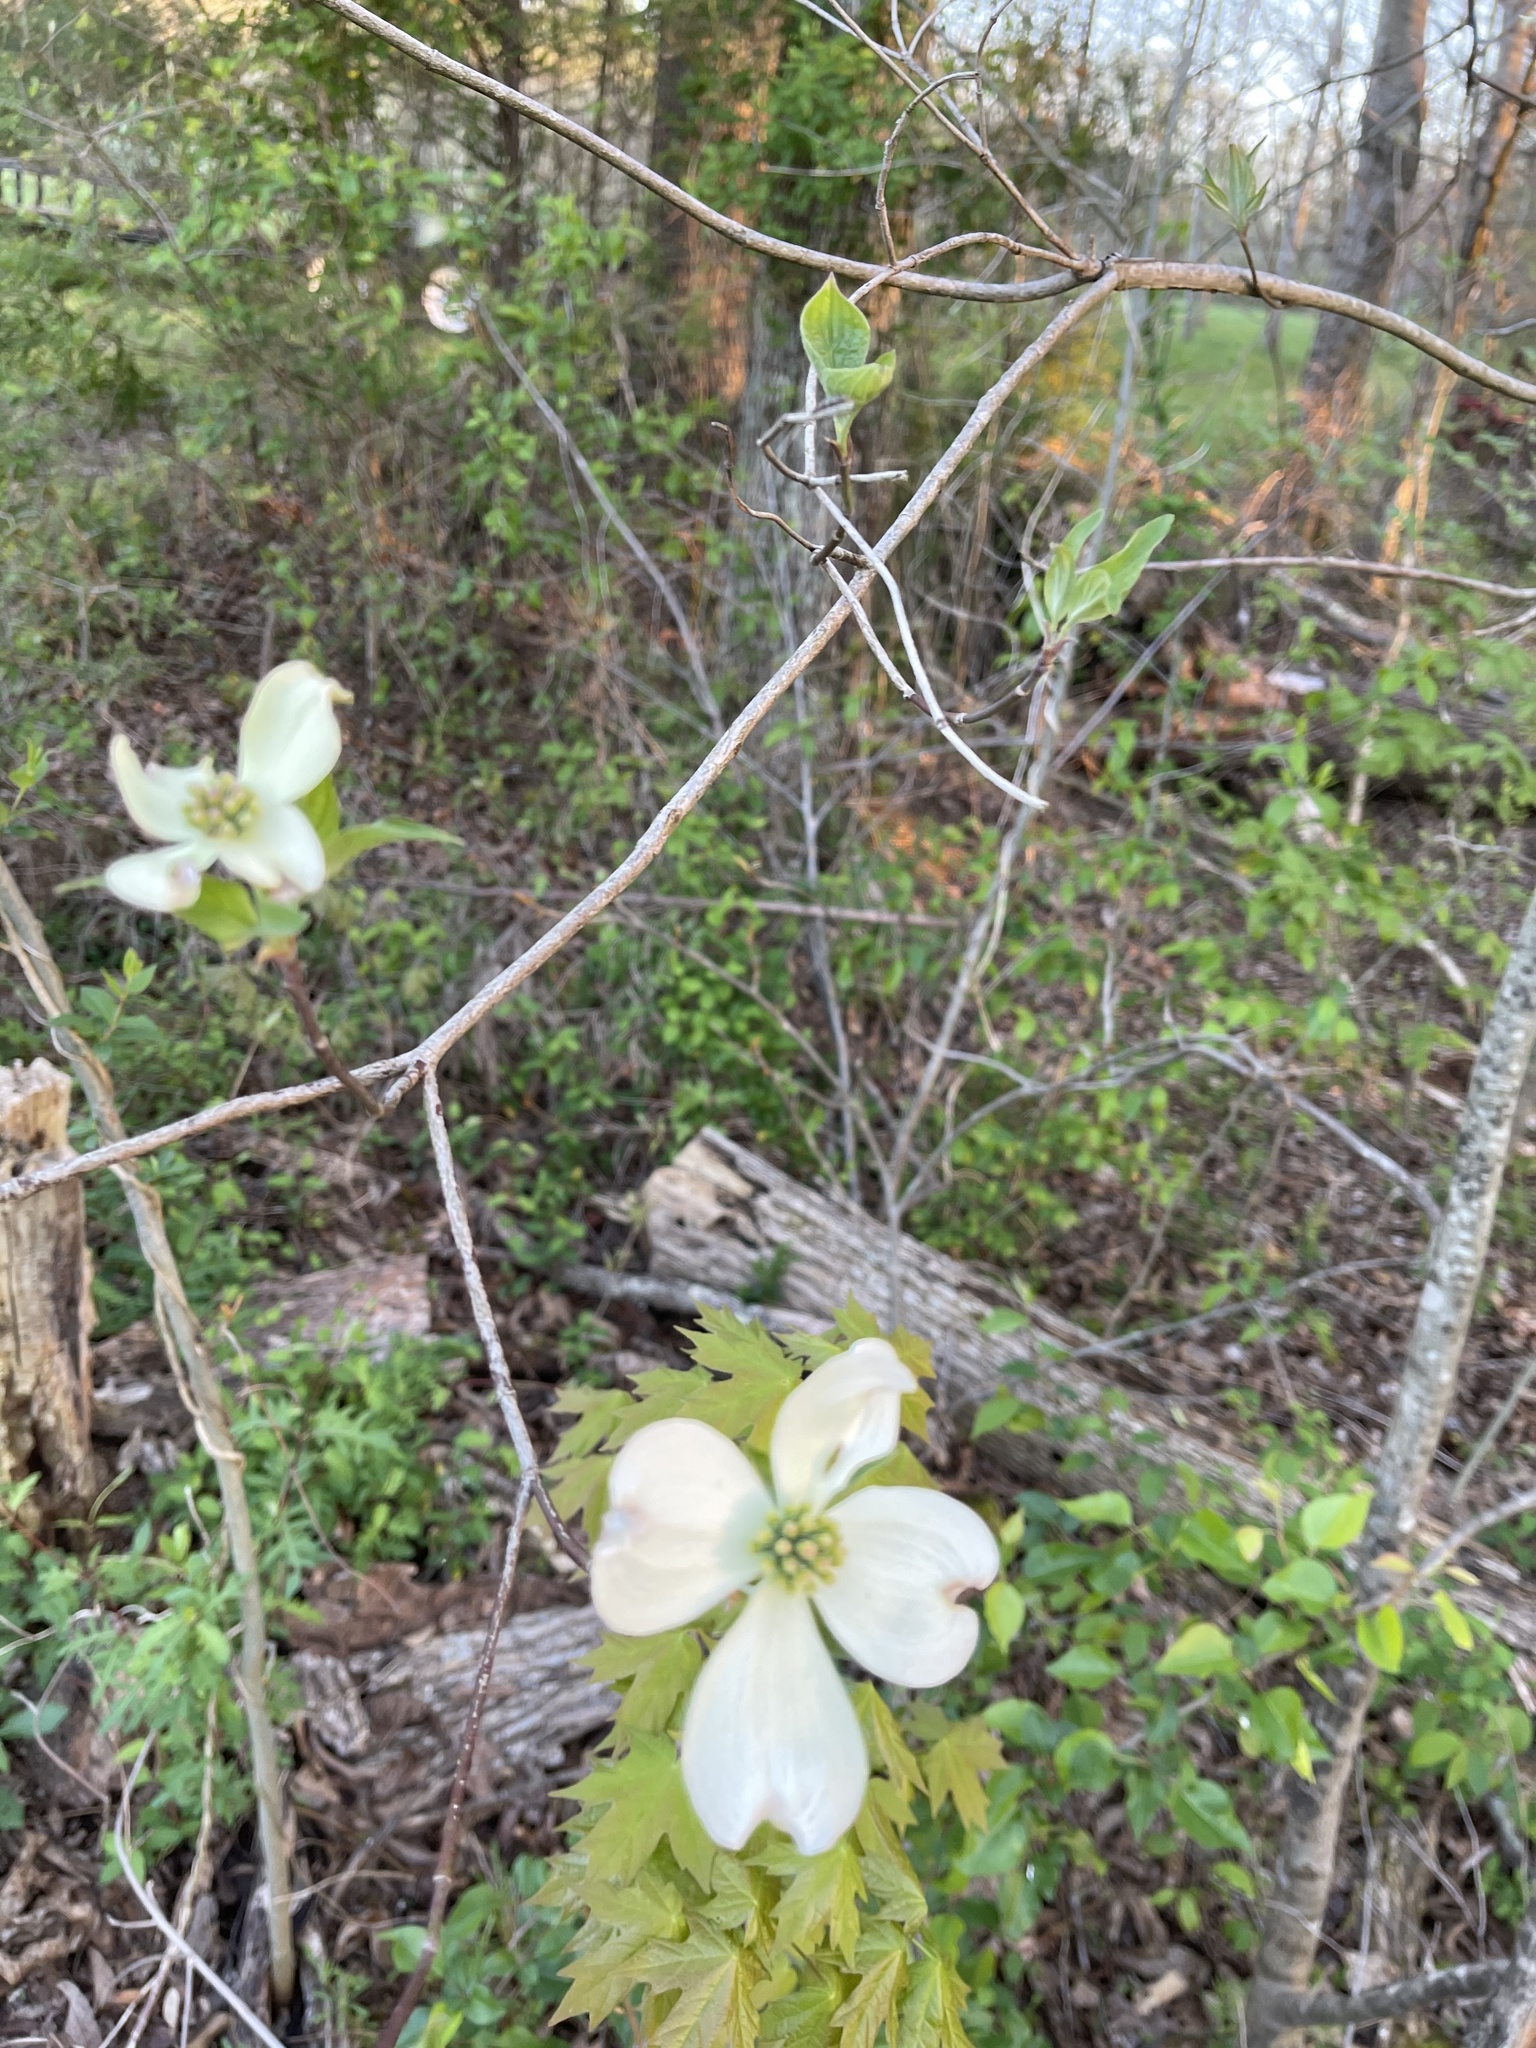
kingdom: Plantae
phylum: Tracheophyta
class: Magnoliopsida
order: Cornales
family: Cornaceae
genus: Cornus
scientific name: Cornus florida
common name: Flowering dogwood
